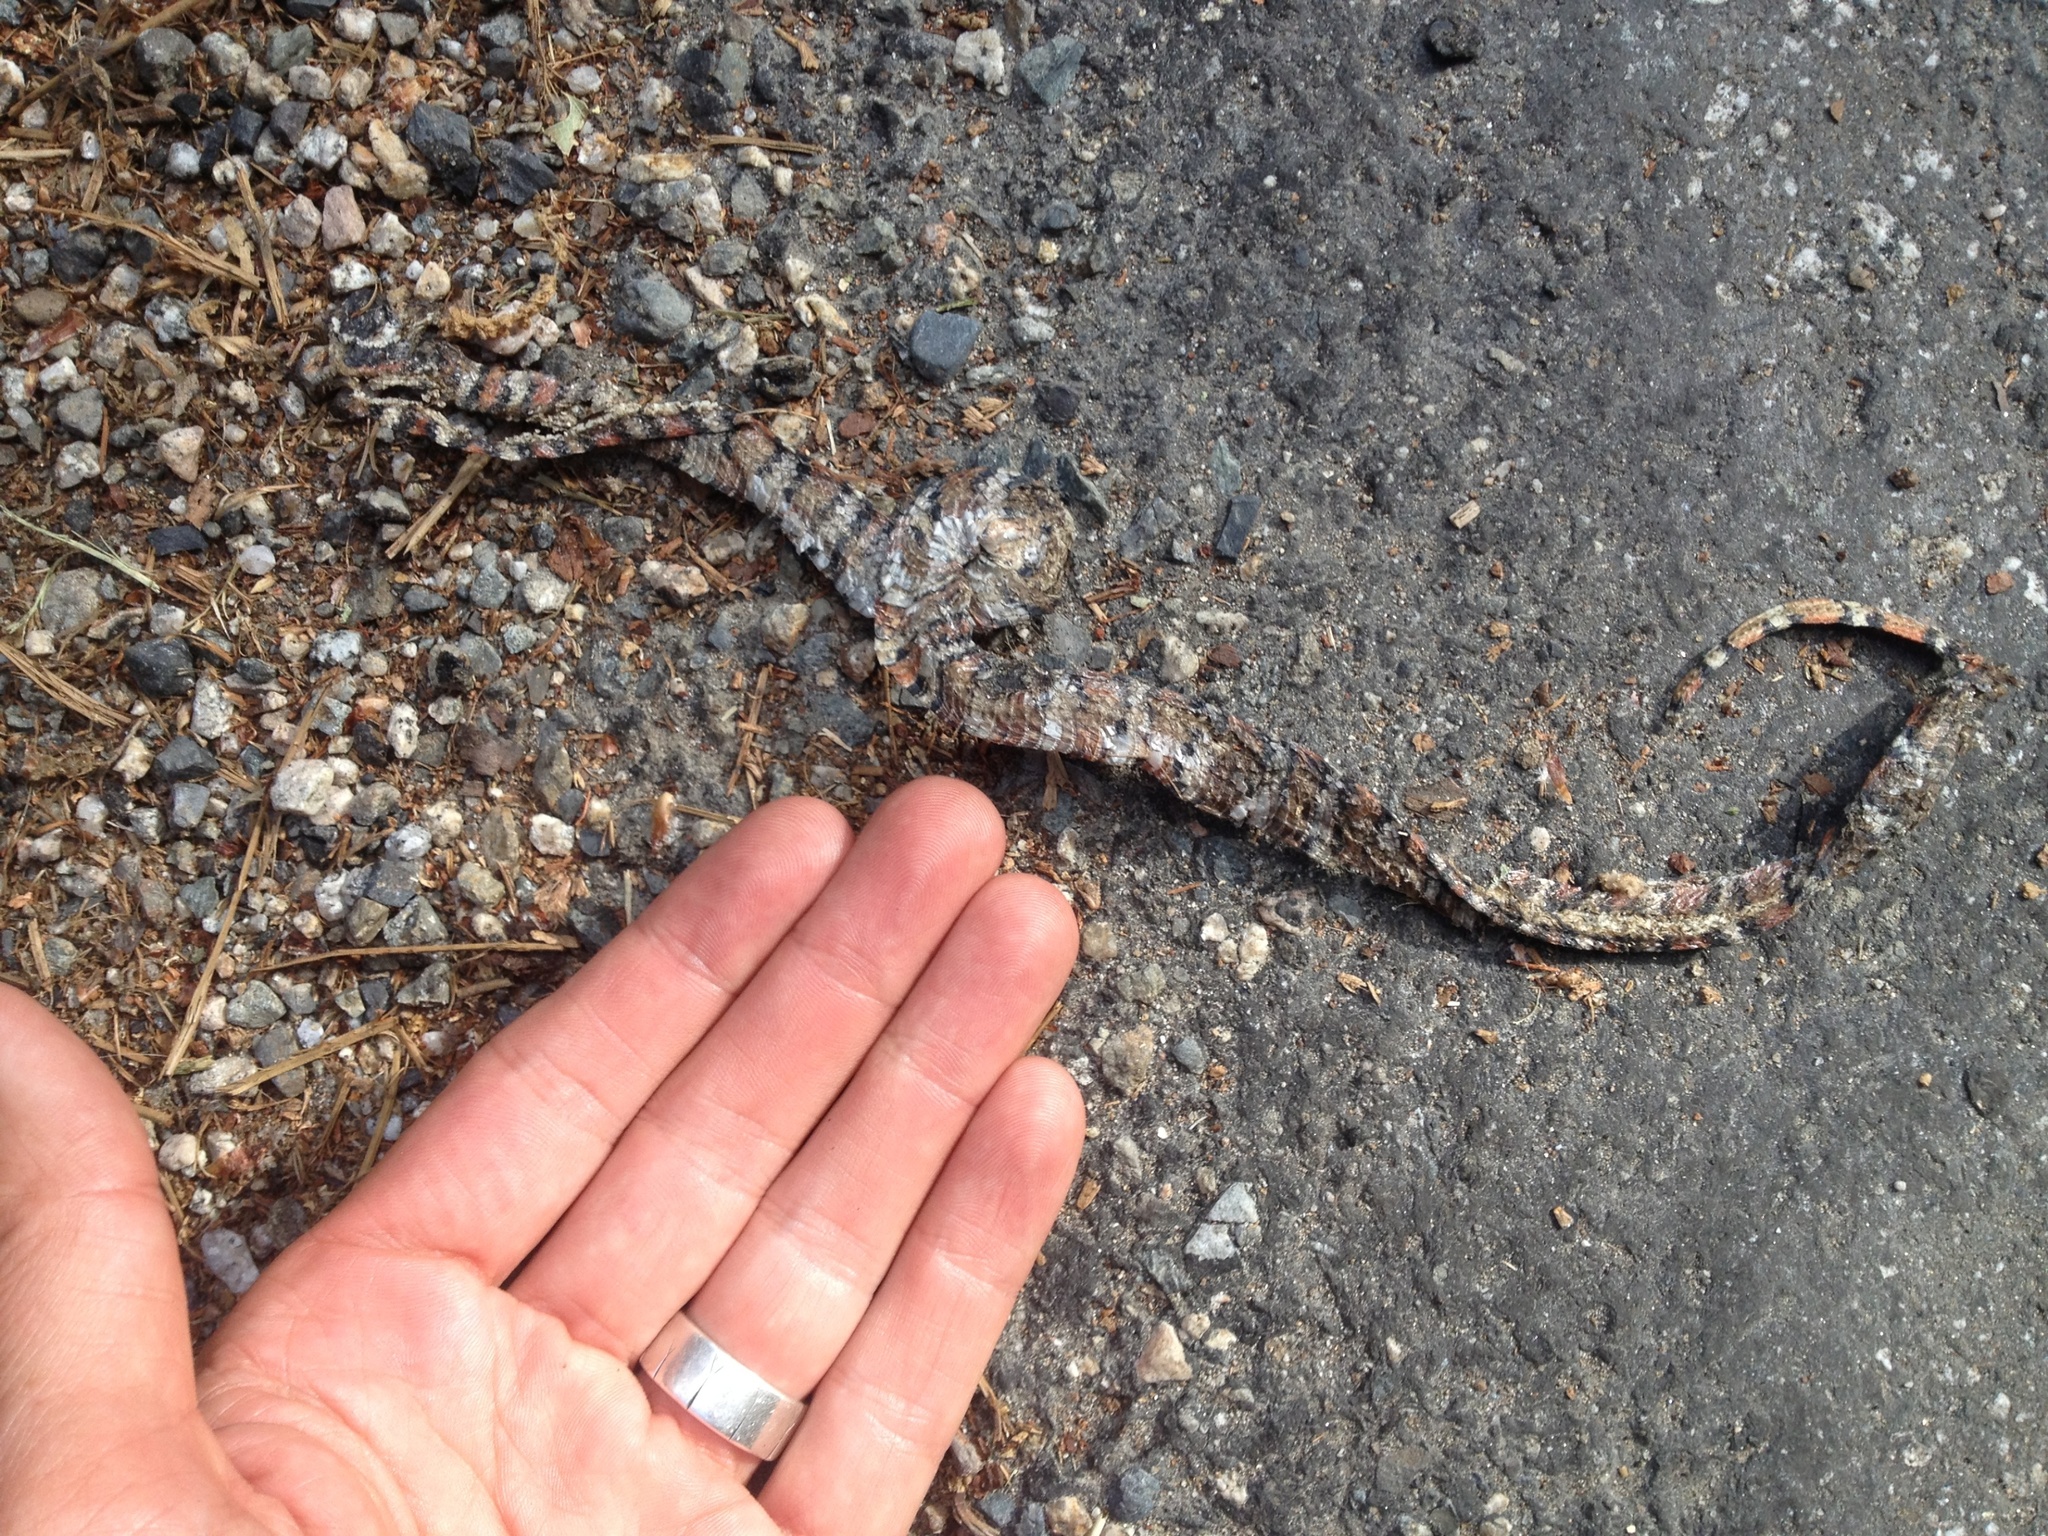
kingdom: Animalia
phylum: Chordata
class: Squamata
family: Colubridae
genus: Lampropeltis
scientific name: Lampropeltis zonata
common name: California mountain kingsnake
